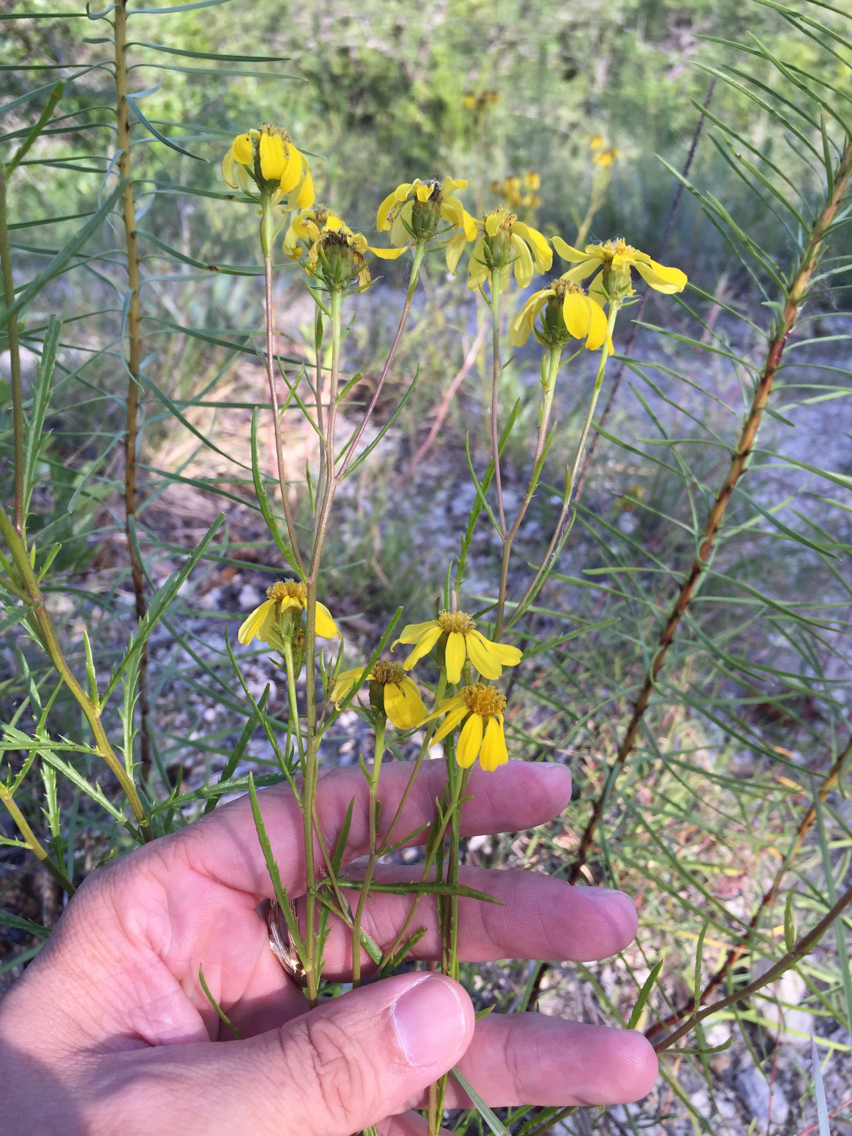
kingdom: Plantae
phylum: Tracheophyta
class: Magnoliopsida
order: Asterales
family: Asteraceae
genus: Dysodiopsis
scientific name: Dysodiopsis tagetoides
